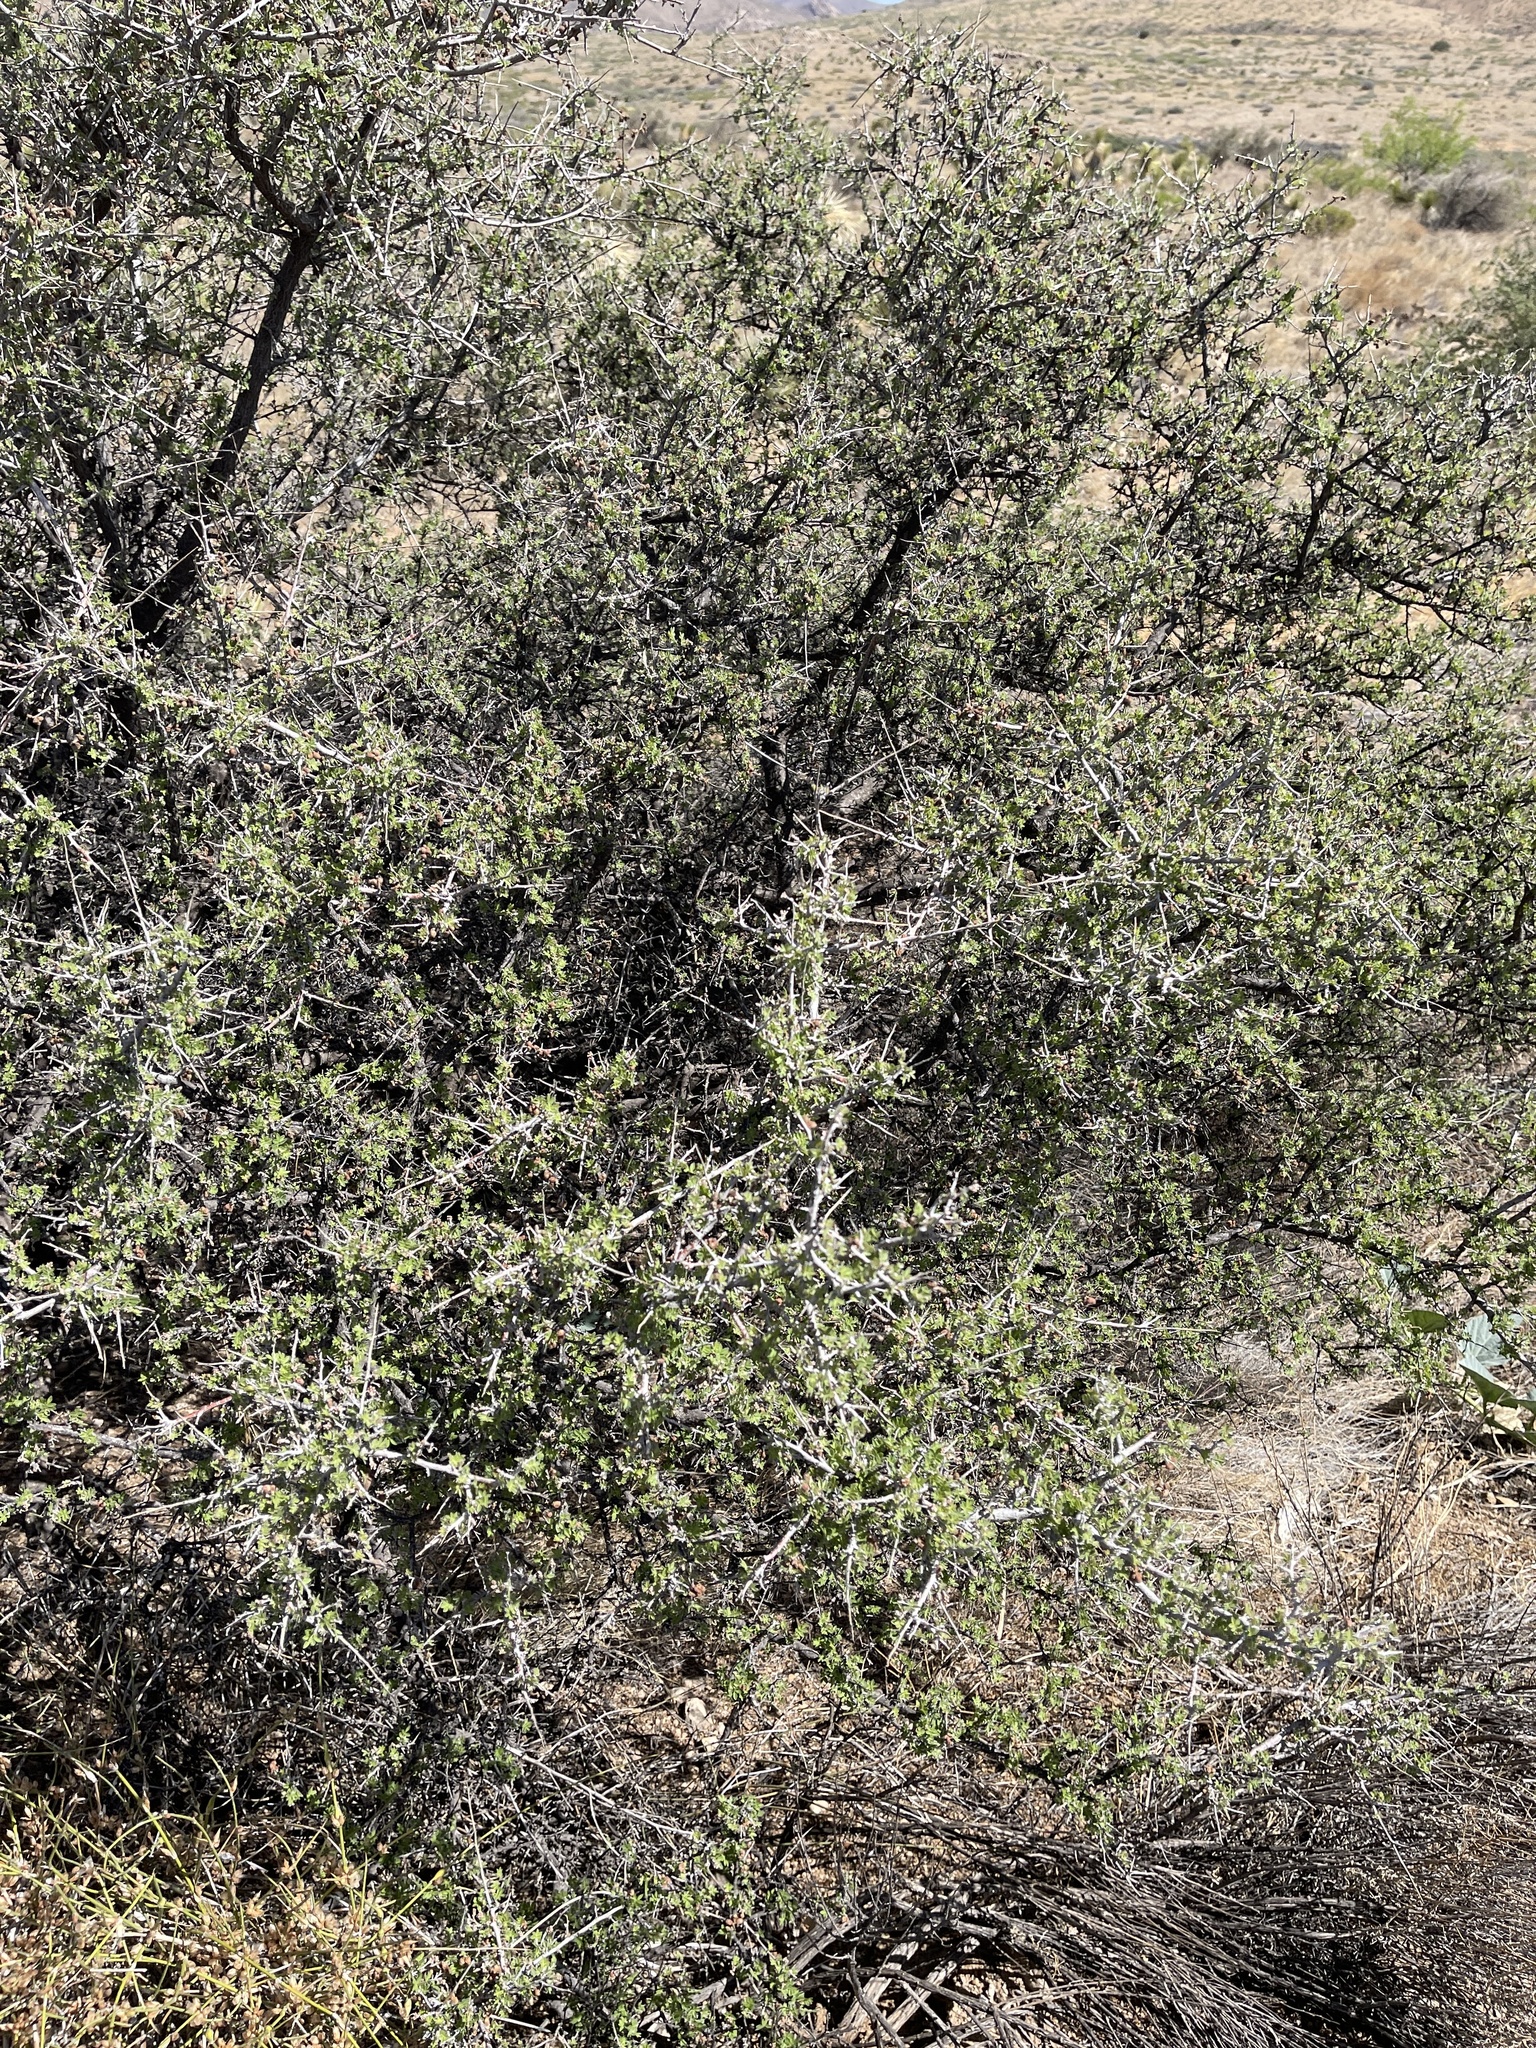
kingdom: Plantae
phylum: Tracheophyta
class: Magnoliopsida
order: Sapindales
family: Anacardiaceae
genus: Rhus
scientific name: Rhus microphylla
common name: Desert sumac
